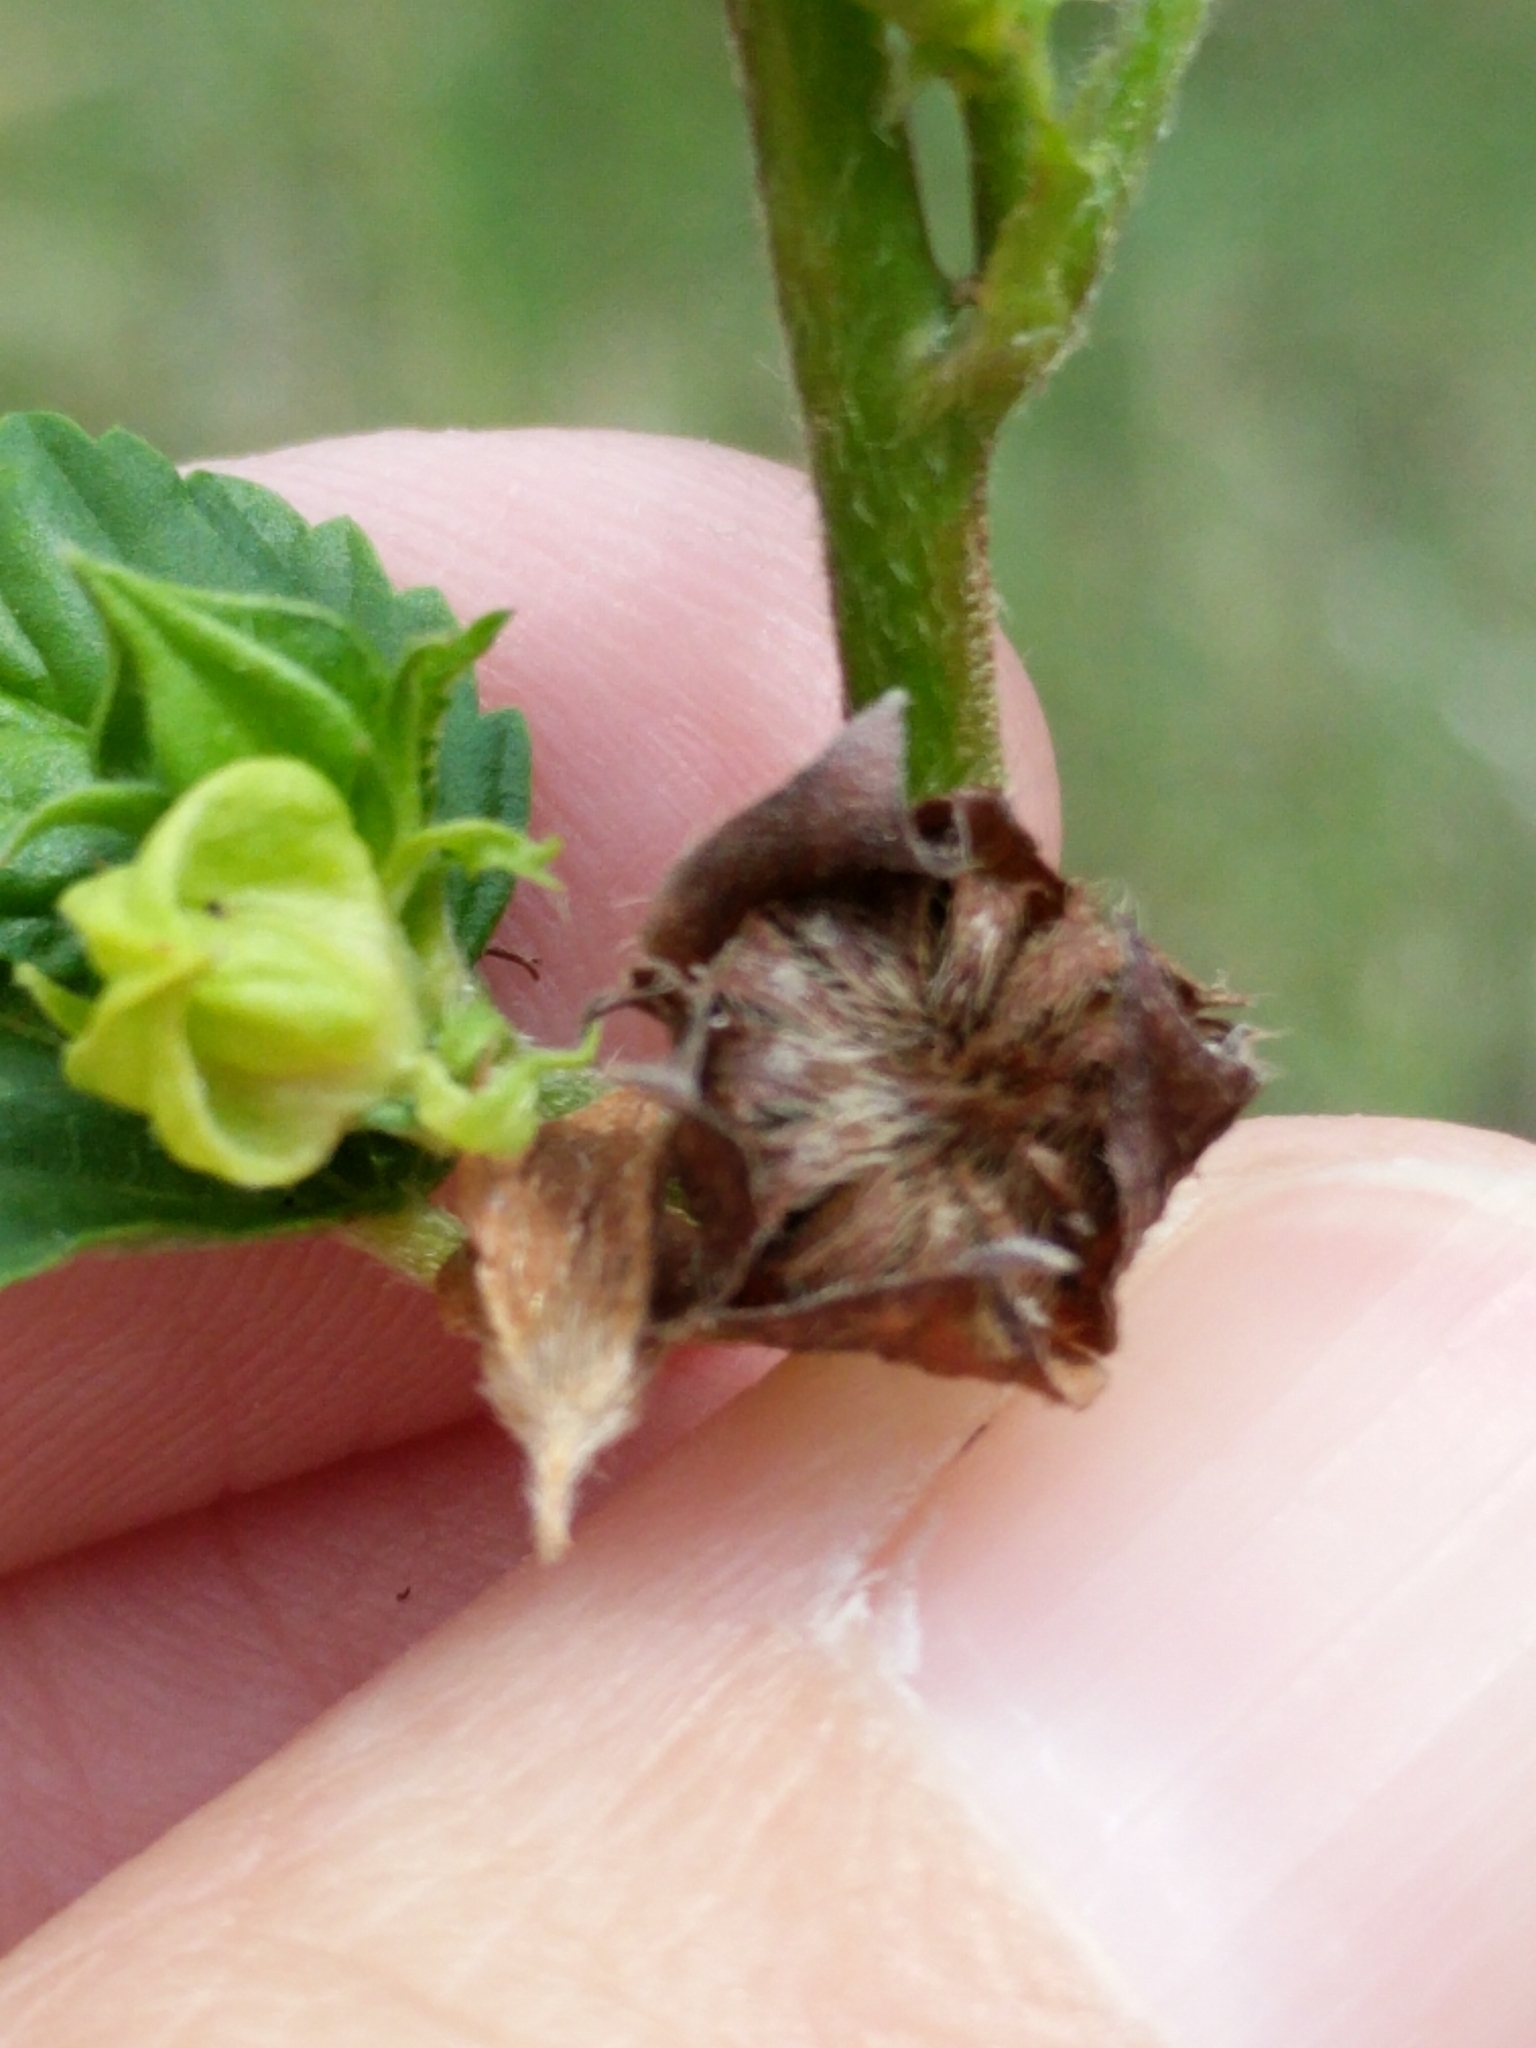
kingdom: Plantae
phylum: Tracheophyta
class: Magnoliopsida
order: Malvales
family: Malvaceae
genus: Malvastrum
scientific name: Malvastrum coromandelianum
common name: Threelobe false mallow
